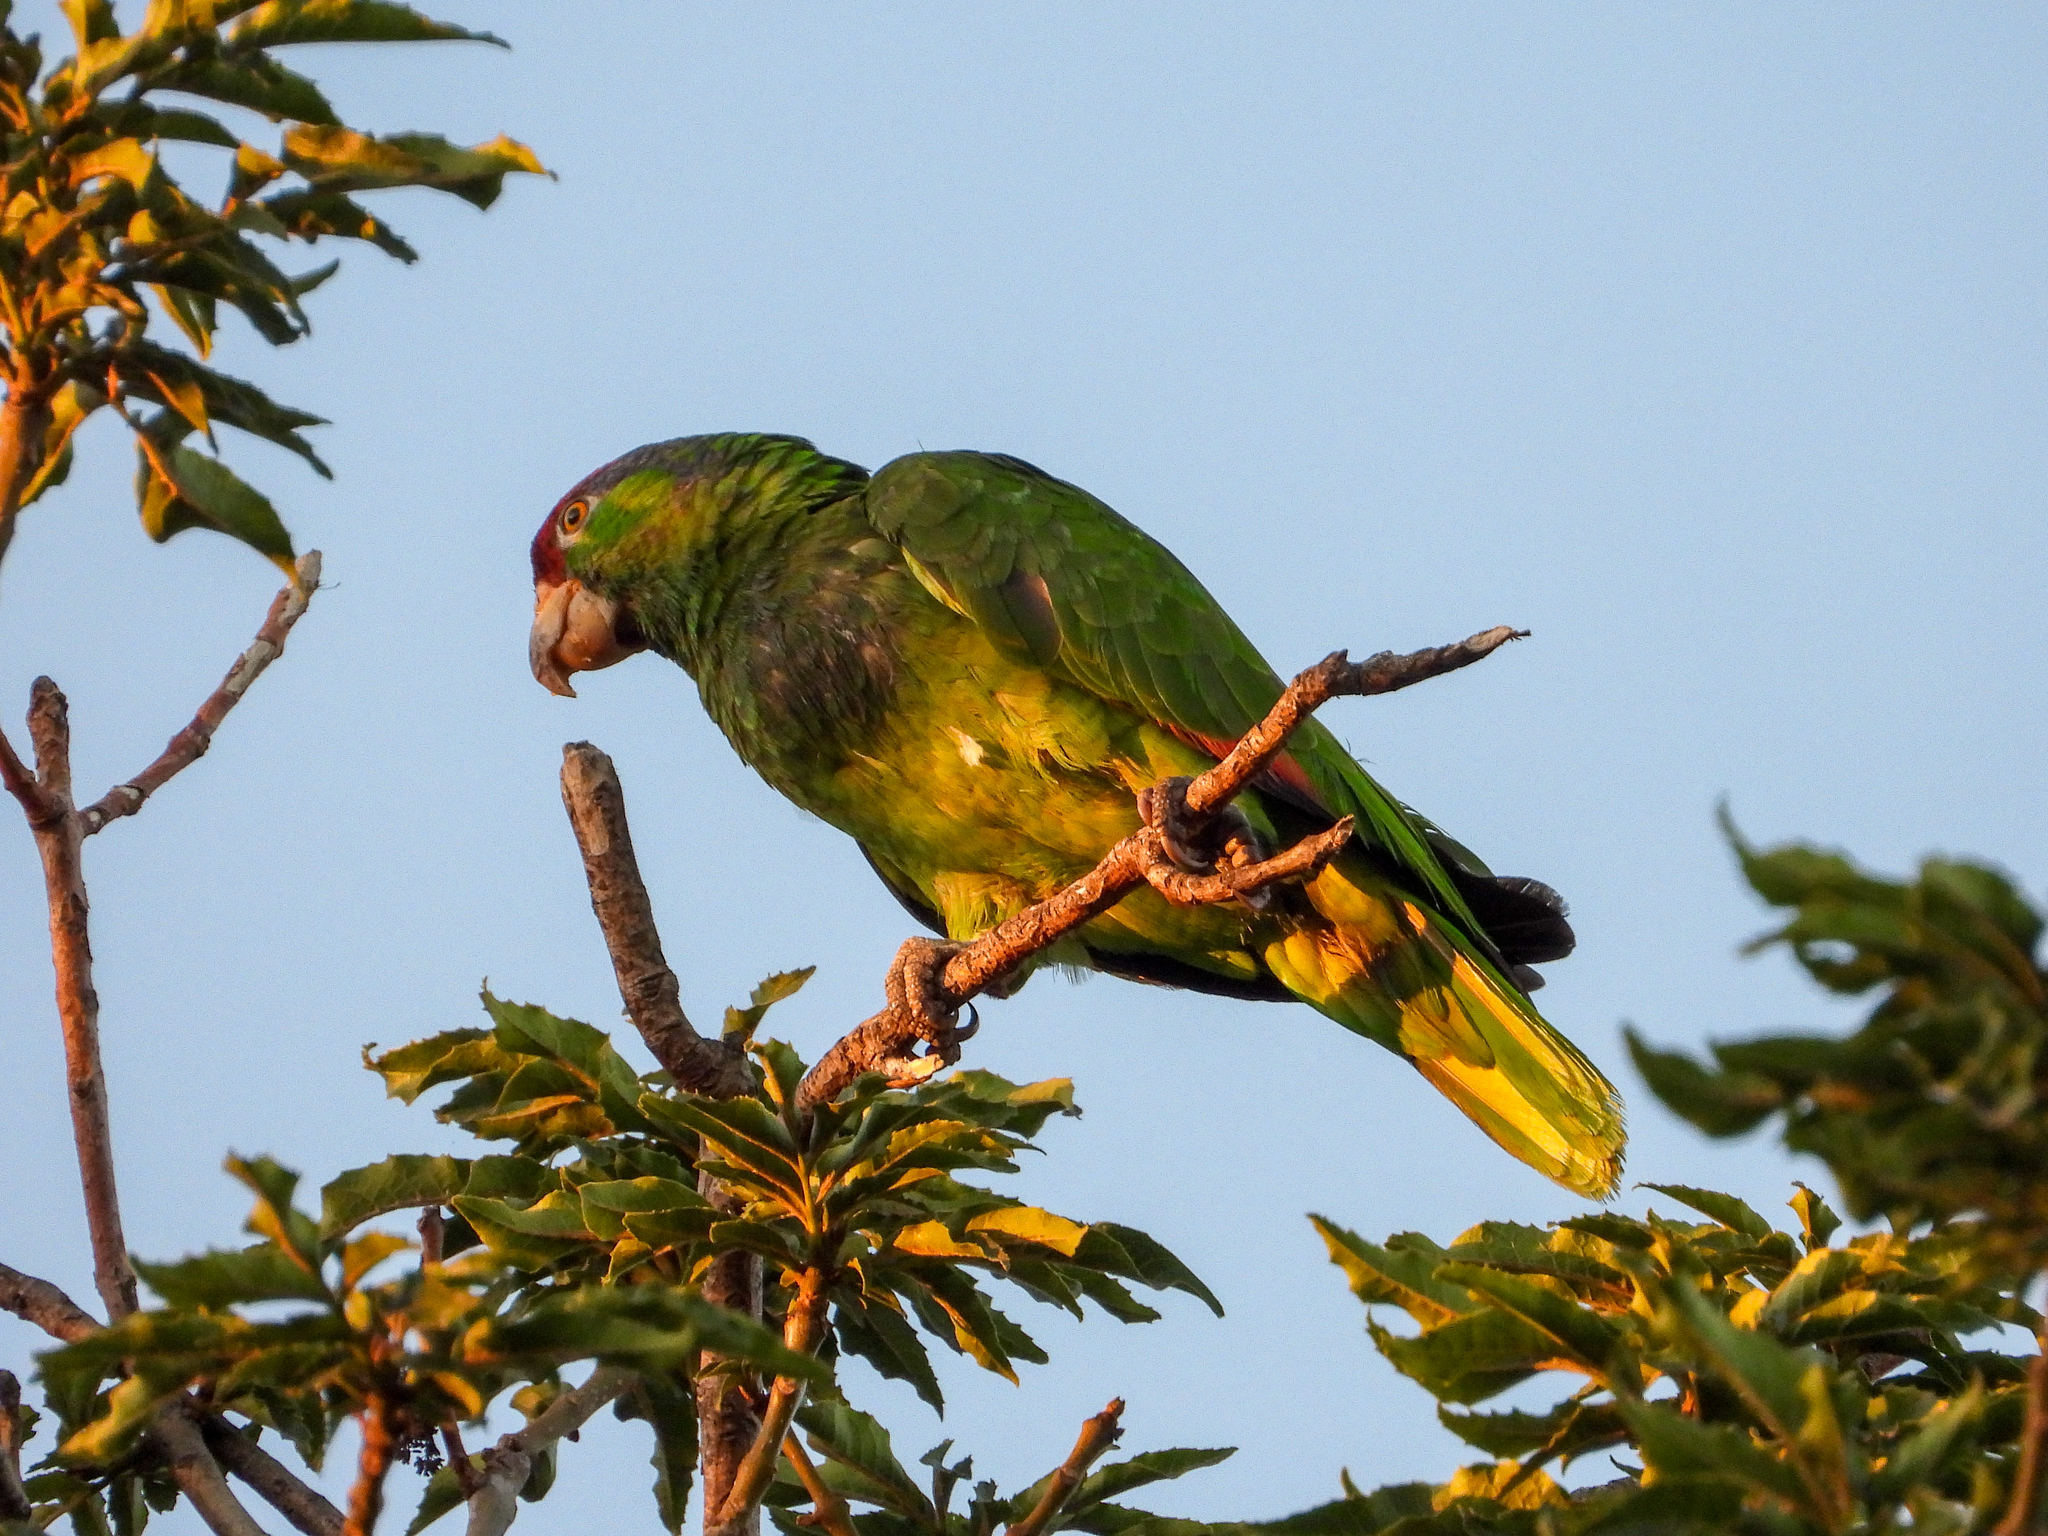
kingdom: Animalia
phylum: Chordata
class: Aves
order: Psittaciformes
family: Psittacidae
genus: Amazona
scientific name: Amazona viridigenalis
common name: Red-crowned amazon
